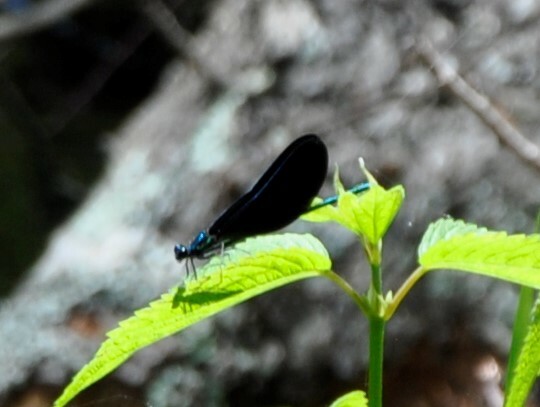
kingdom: Animalia
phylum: Arthropoda
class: Insecta
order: Odonata
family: Calopterygidae
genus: Calopteryx
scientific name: Calopteryx maculata
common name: Ebony jewelwing
